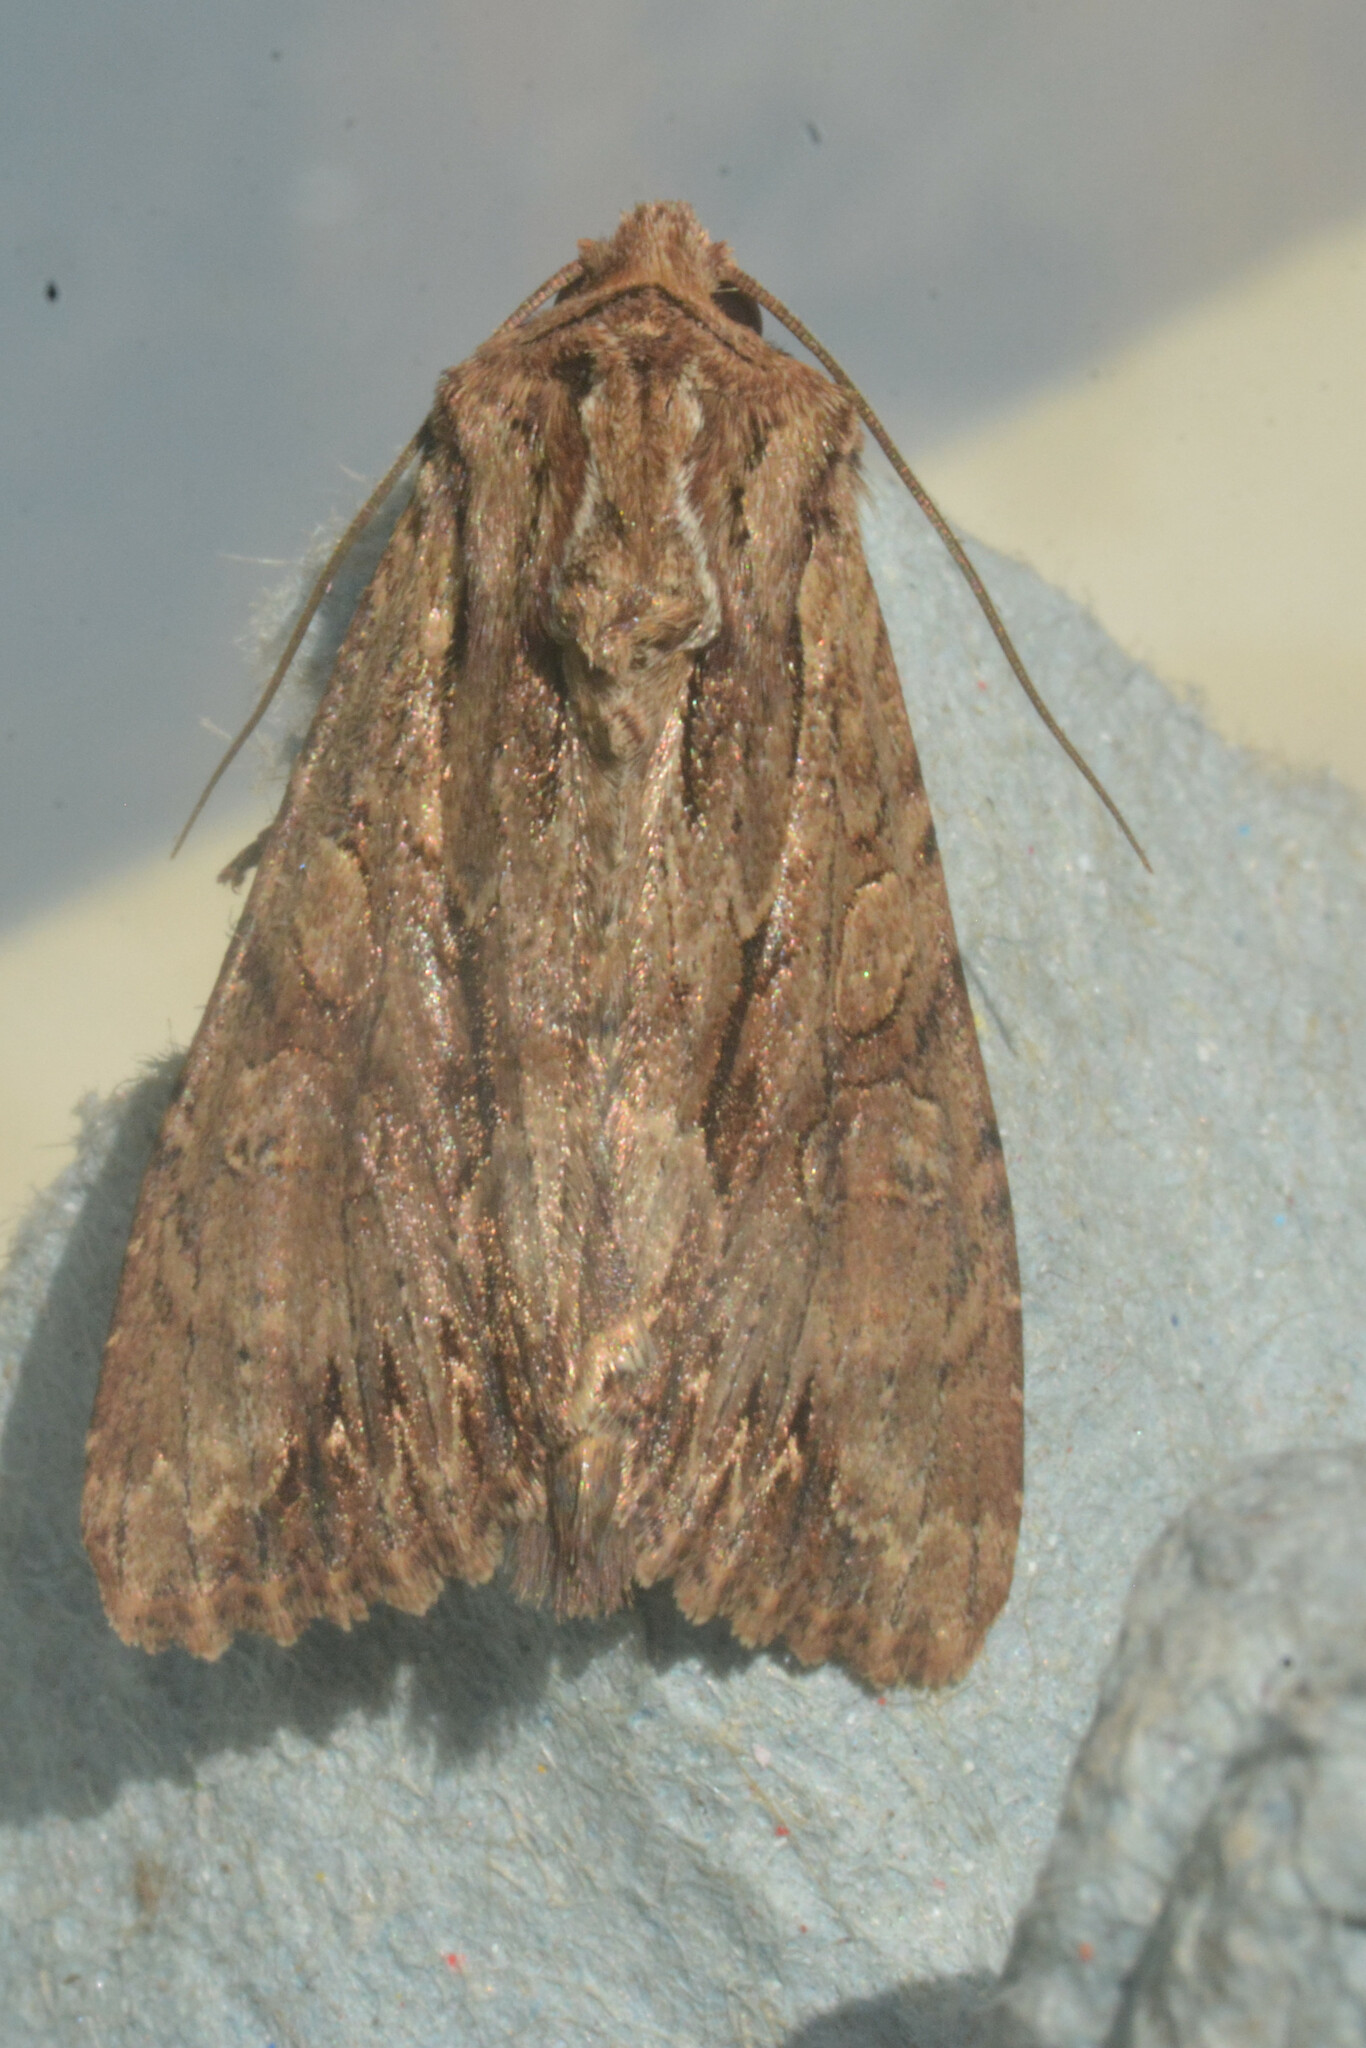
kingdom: Animalia
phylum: Arthropoda
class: Insecta
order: Lepidoptera
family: Noctuidae
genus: Apamea
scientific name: Apamea monoglypha
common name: Dark arches
